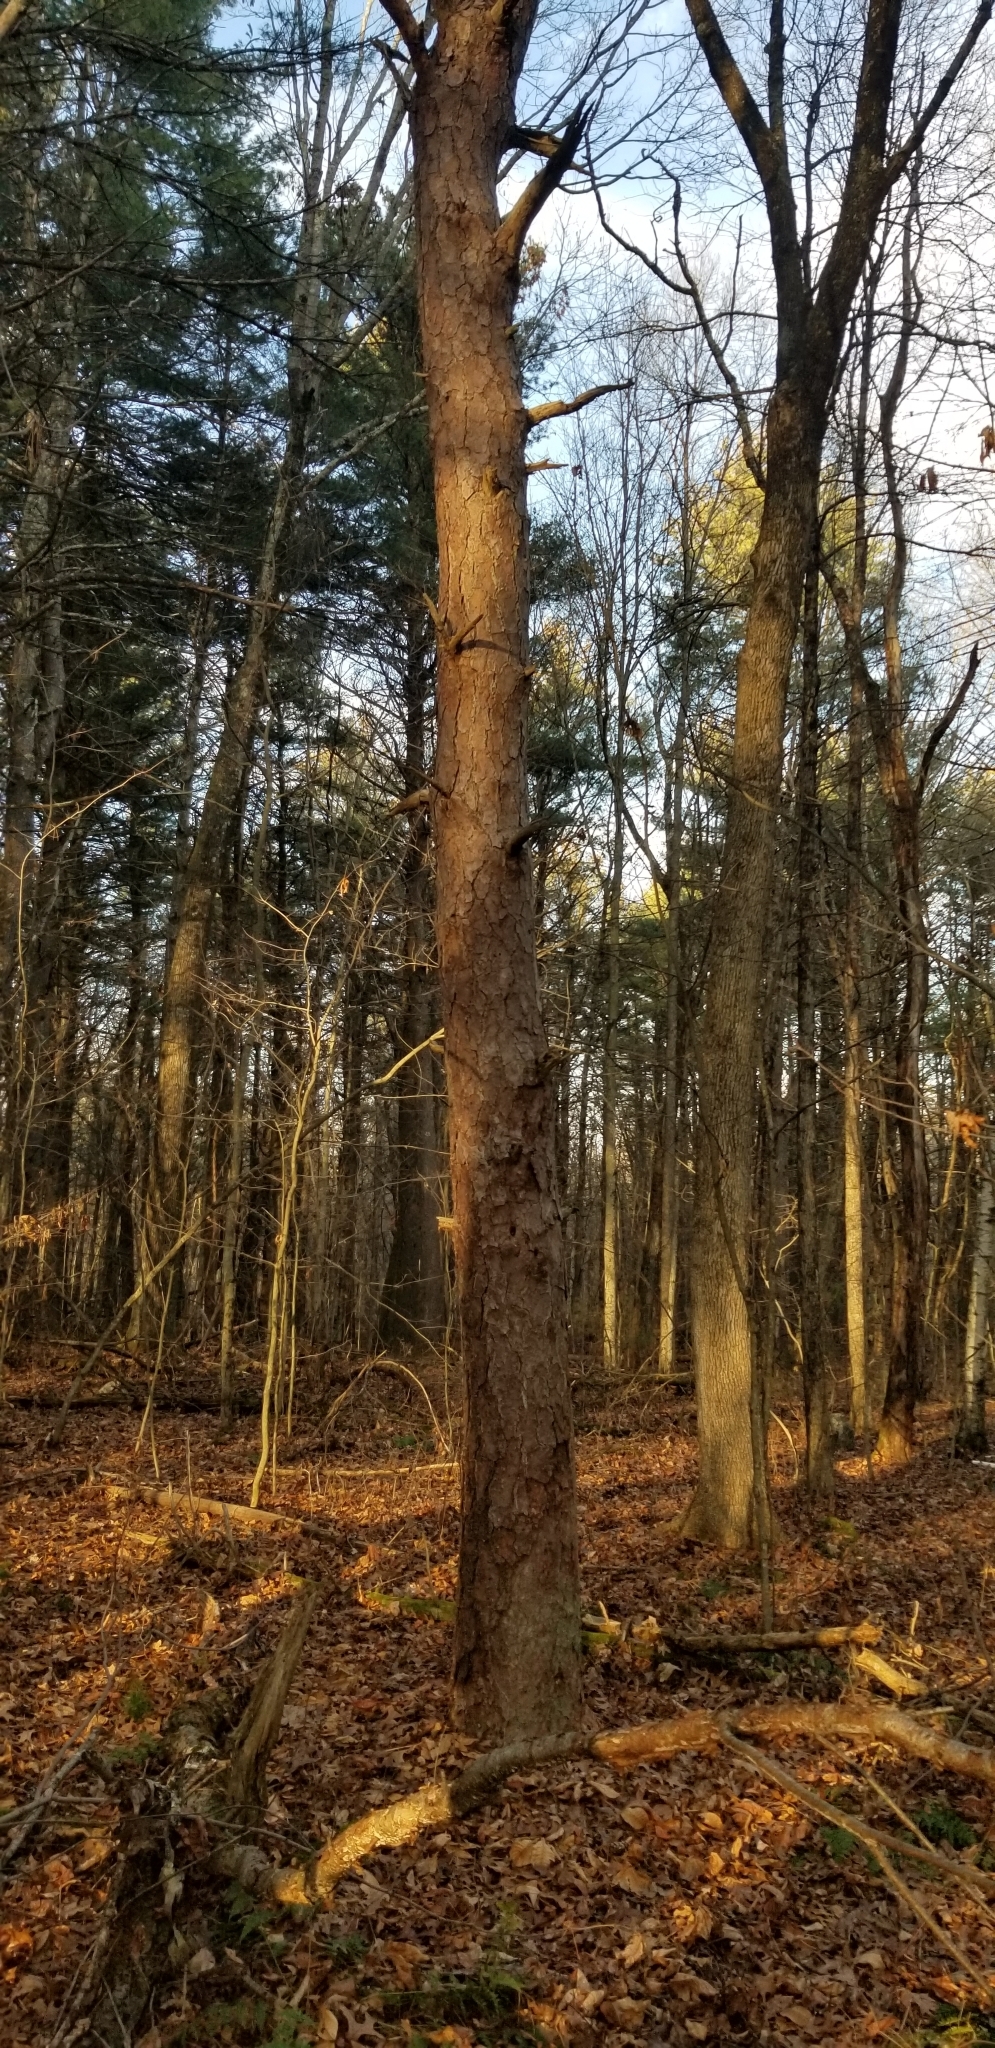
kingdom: Plantae
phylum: Tracheophyta
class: Pinopsida
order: Pinales
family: Pinaceae
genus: Pinus
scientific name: Pinus rigida
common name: Pitch pine
